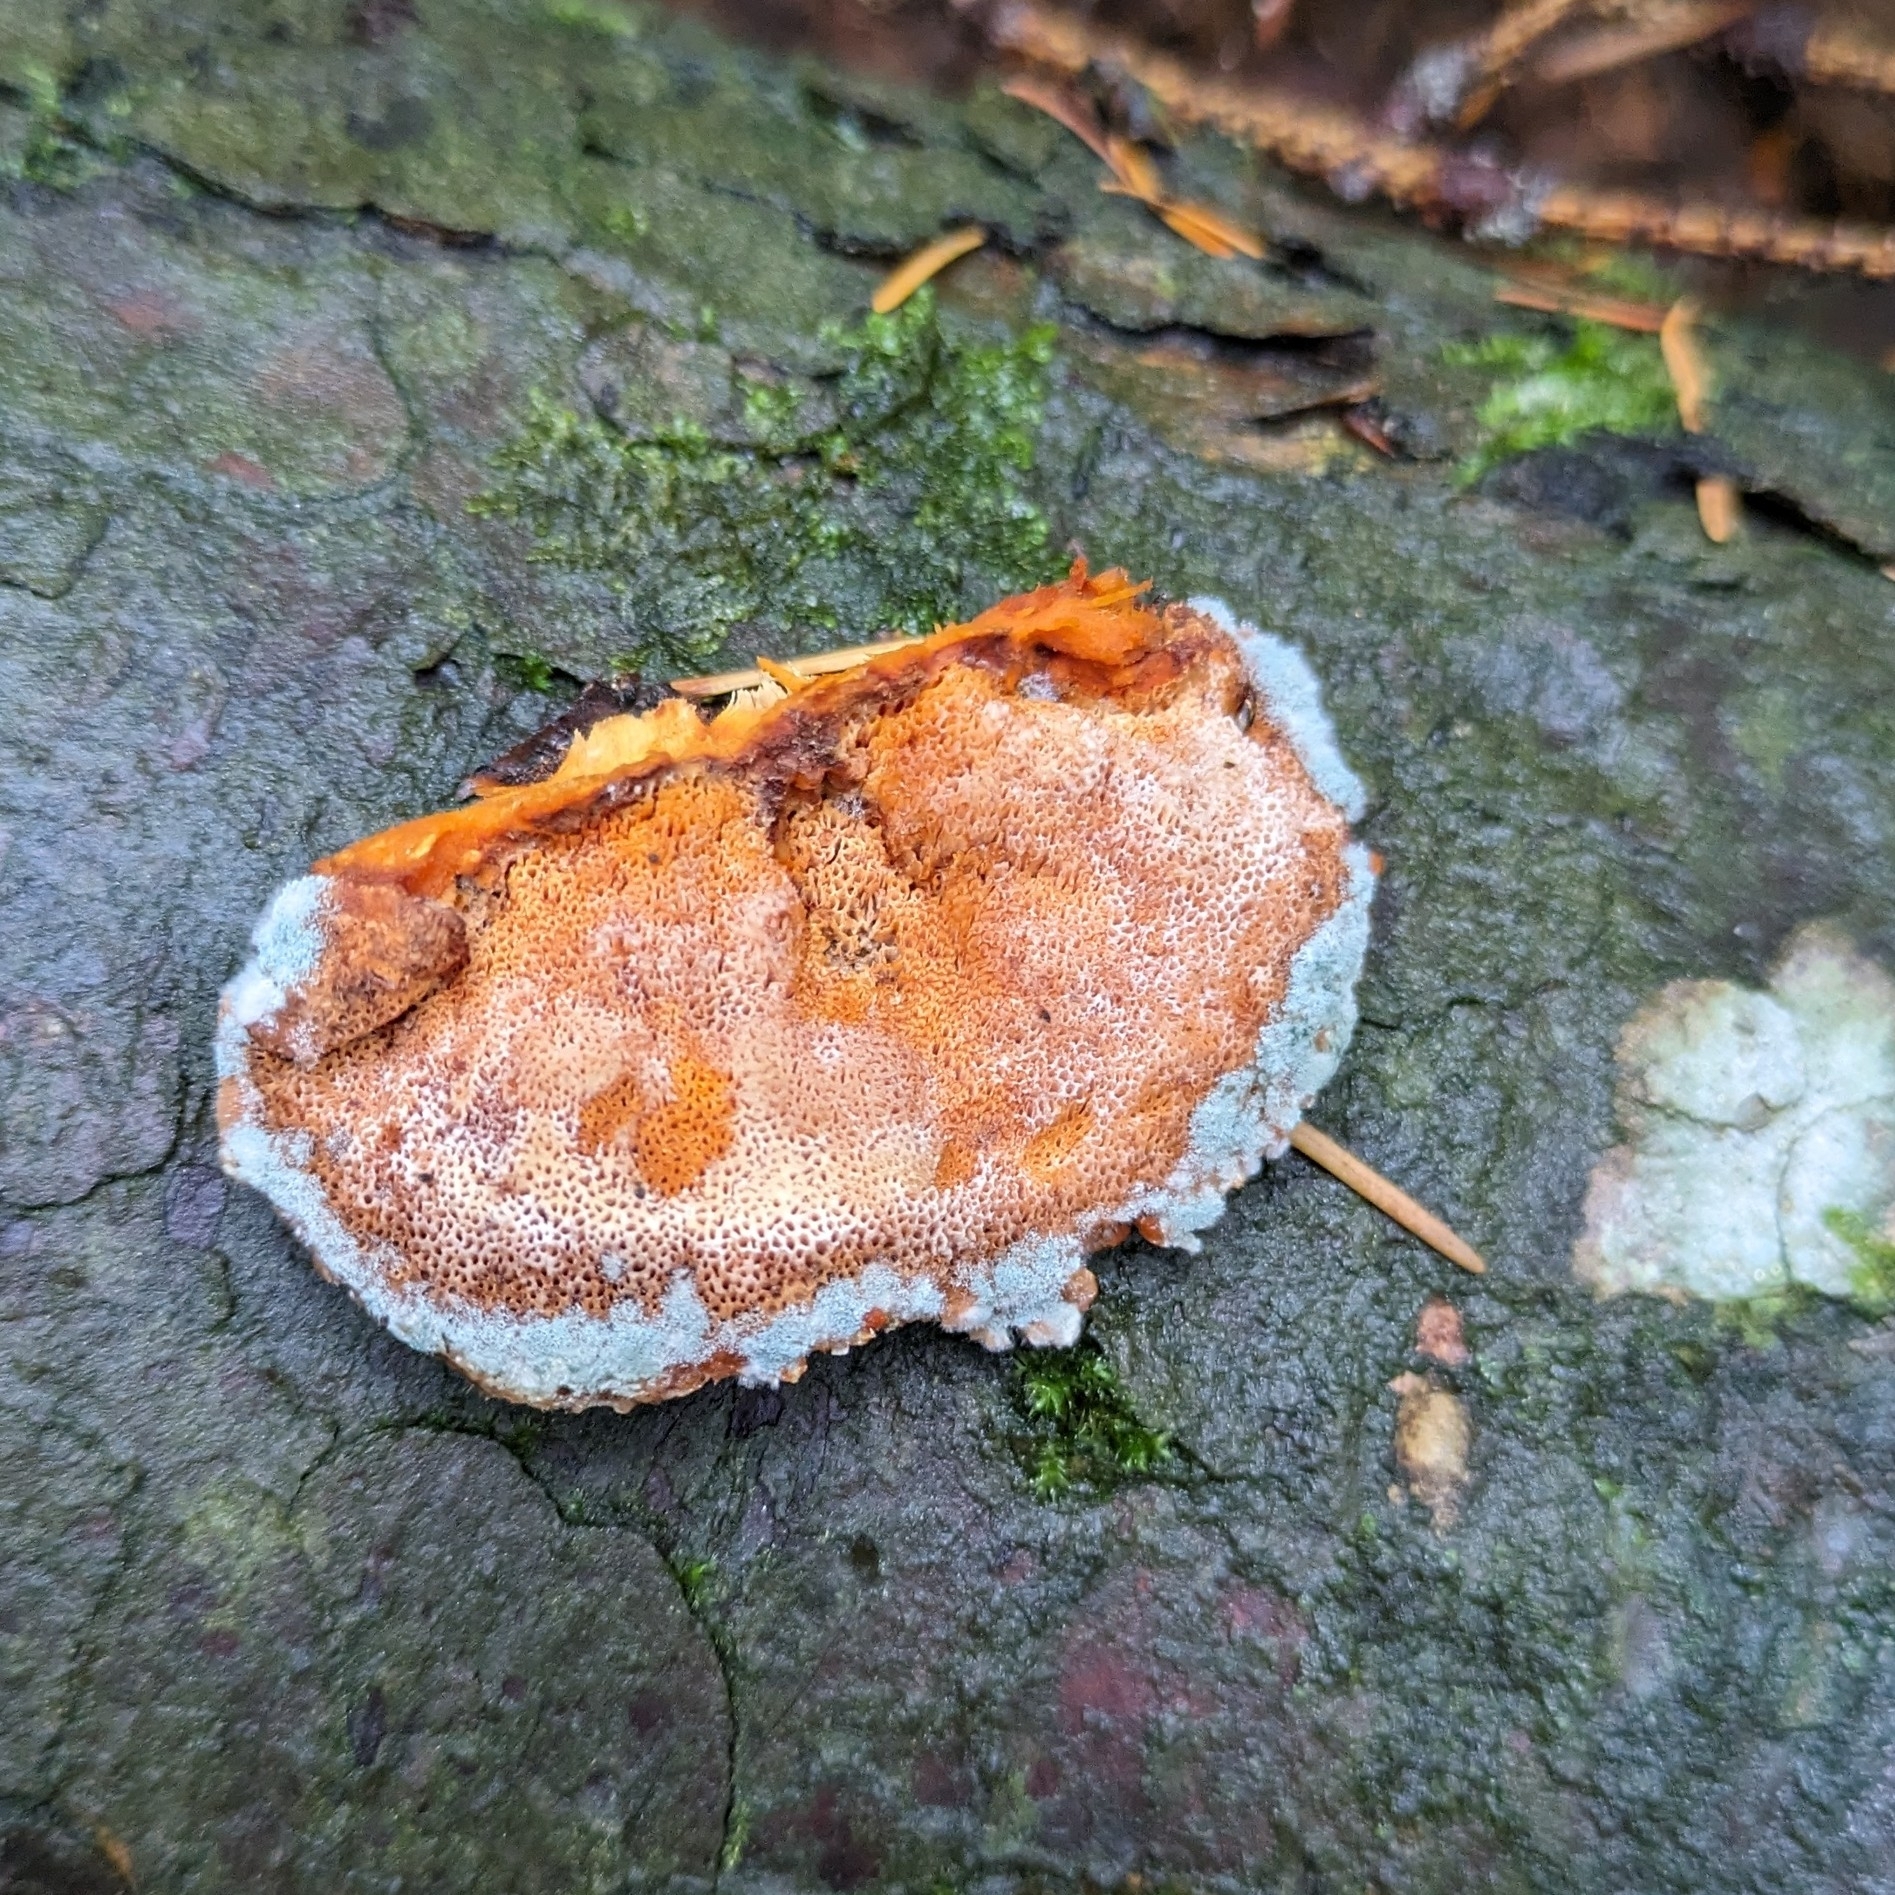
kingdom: Fungi
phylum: Basidiomycota
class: Agaricomycetes
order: Polyporales
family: Pycnoporellaceae
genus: Pycnoporellus
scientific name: Pycnoporellus fulgens
